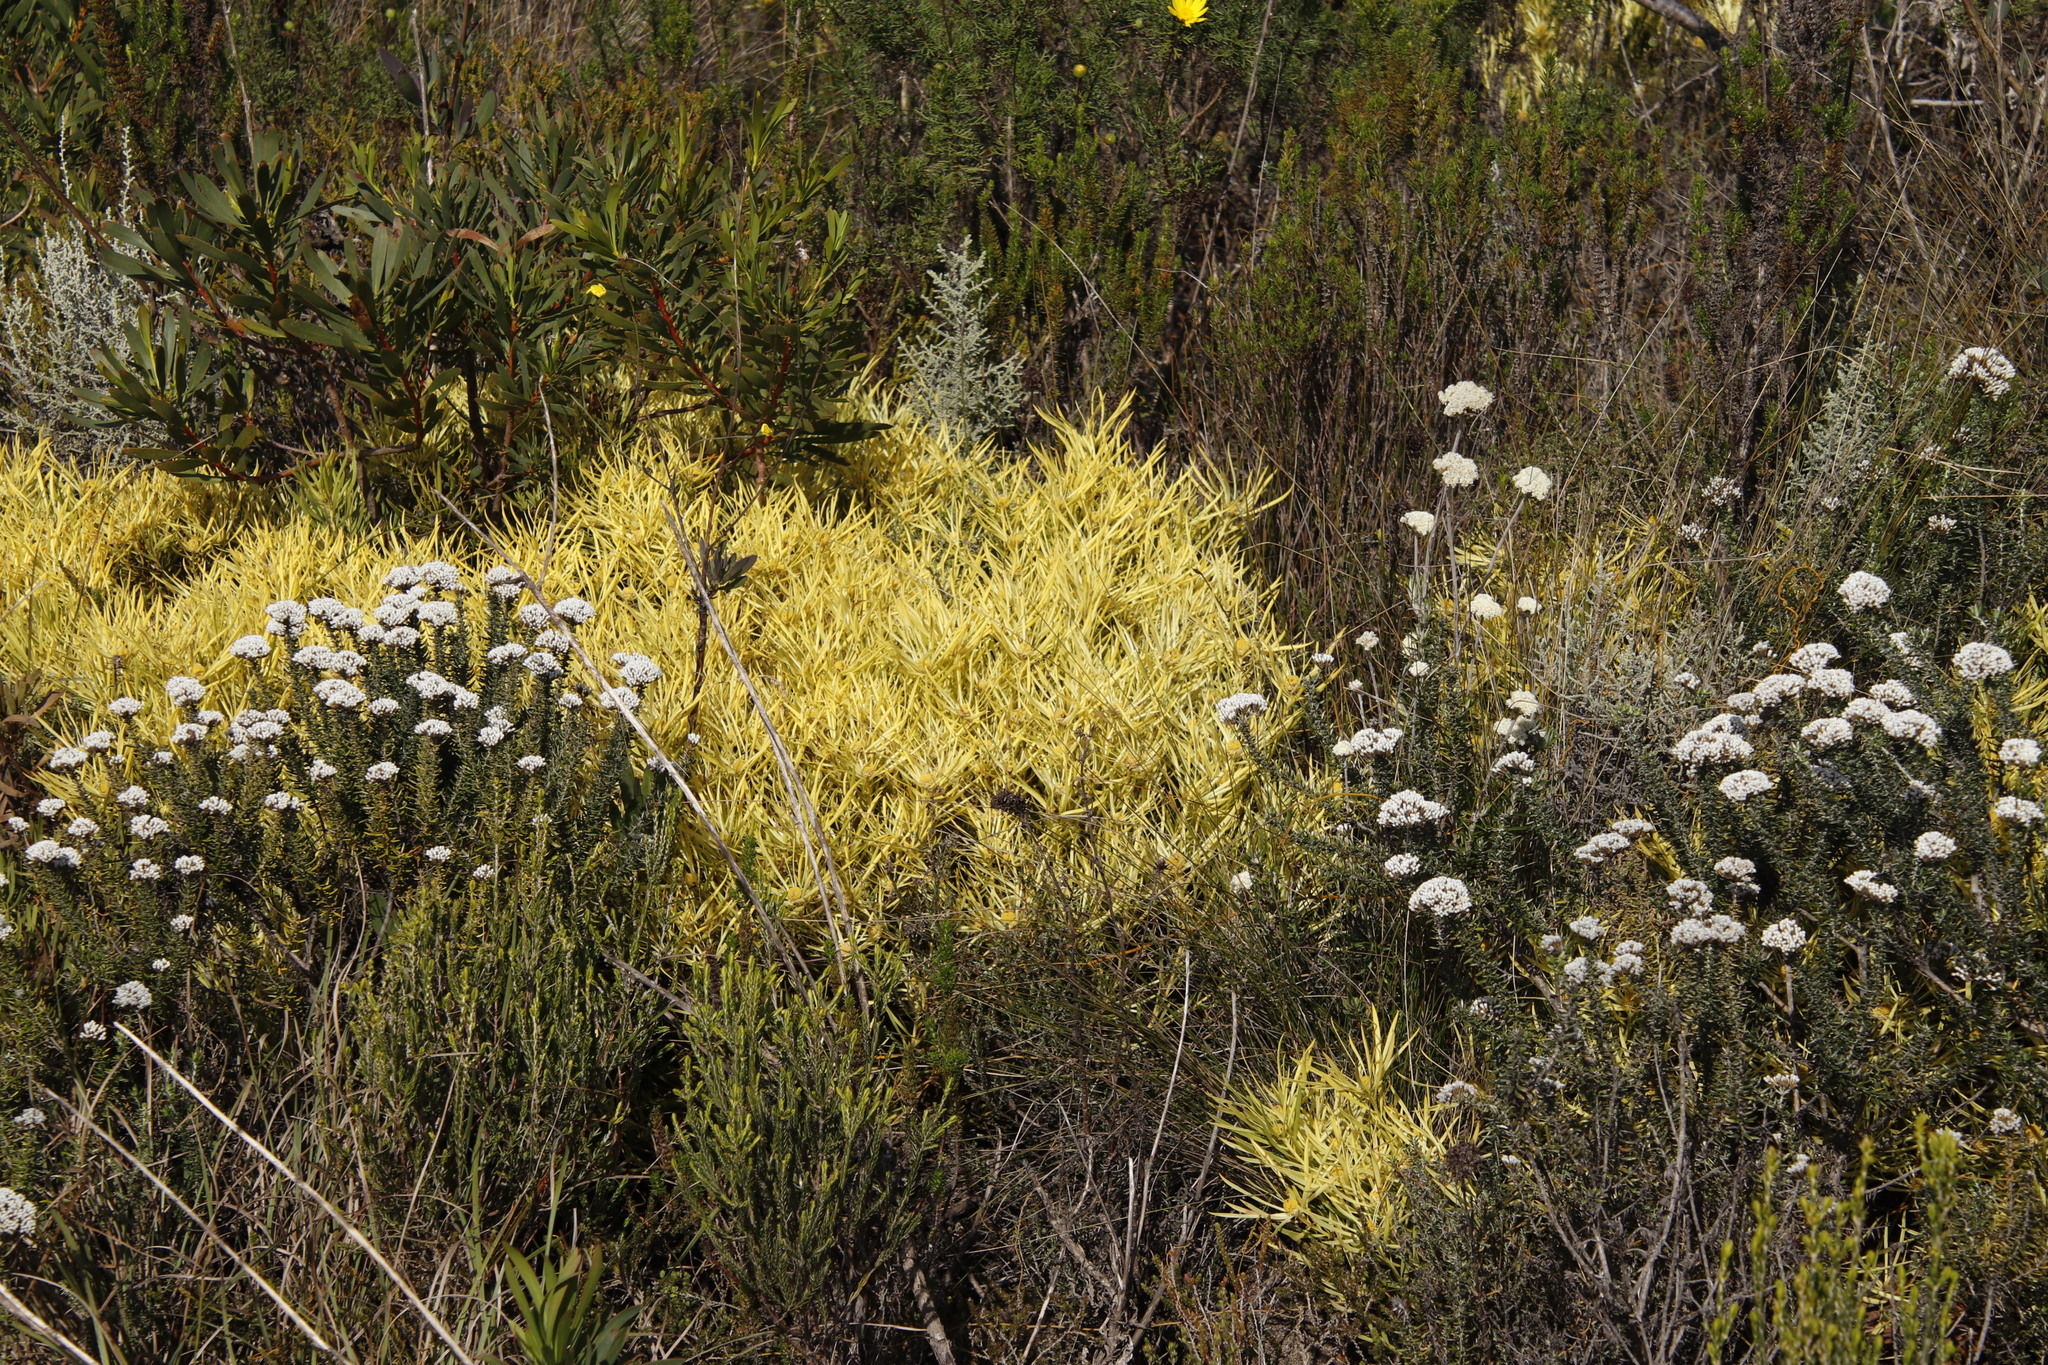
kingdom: Plantae
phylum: Tracheophyta
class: Magnoliopsida
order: Proteales
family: Proteaceae
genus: Leucadendron
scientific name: Leucadendron salignum
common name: Common sunshine conebush
